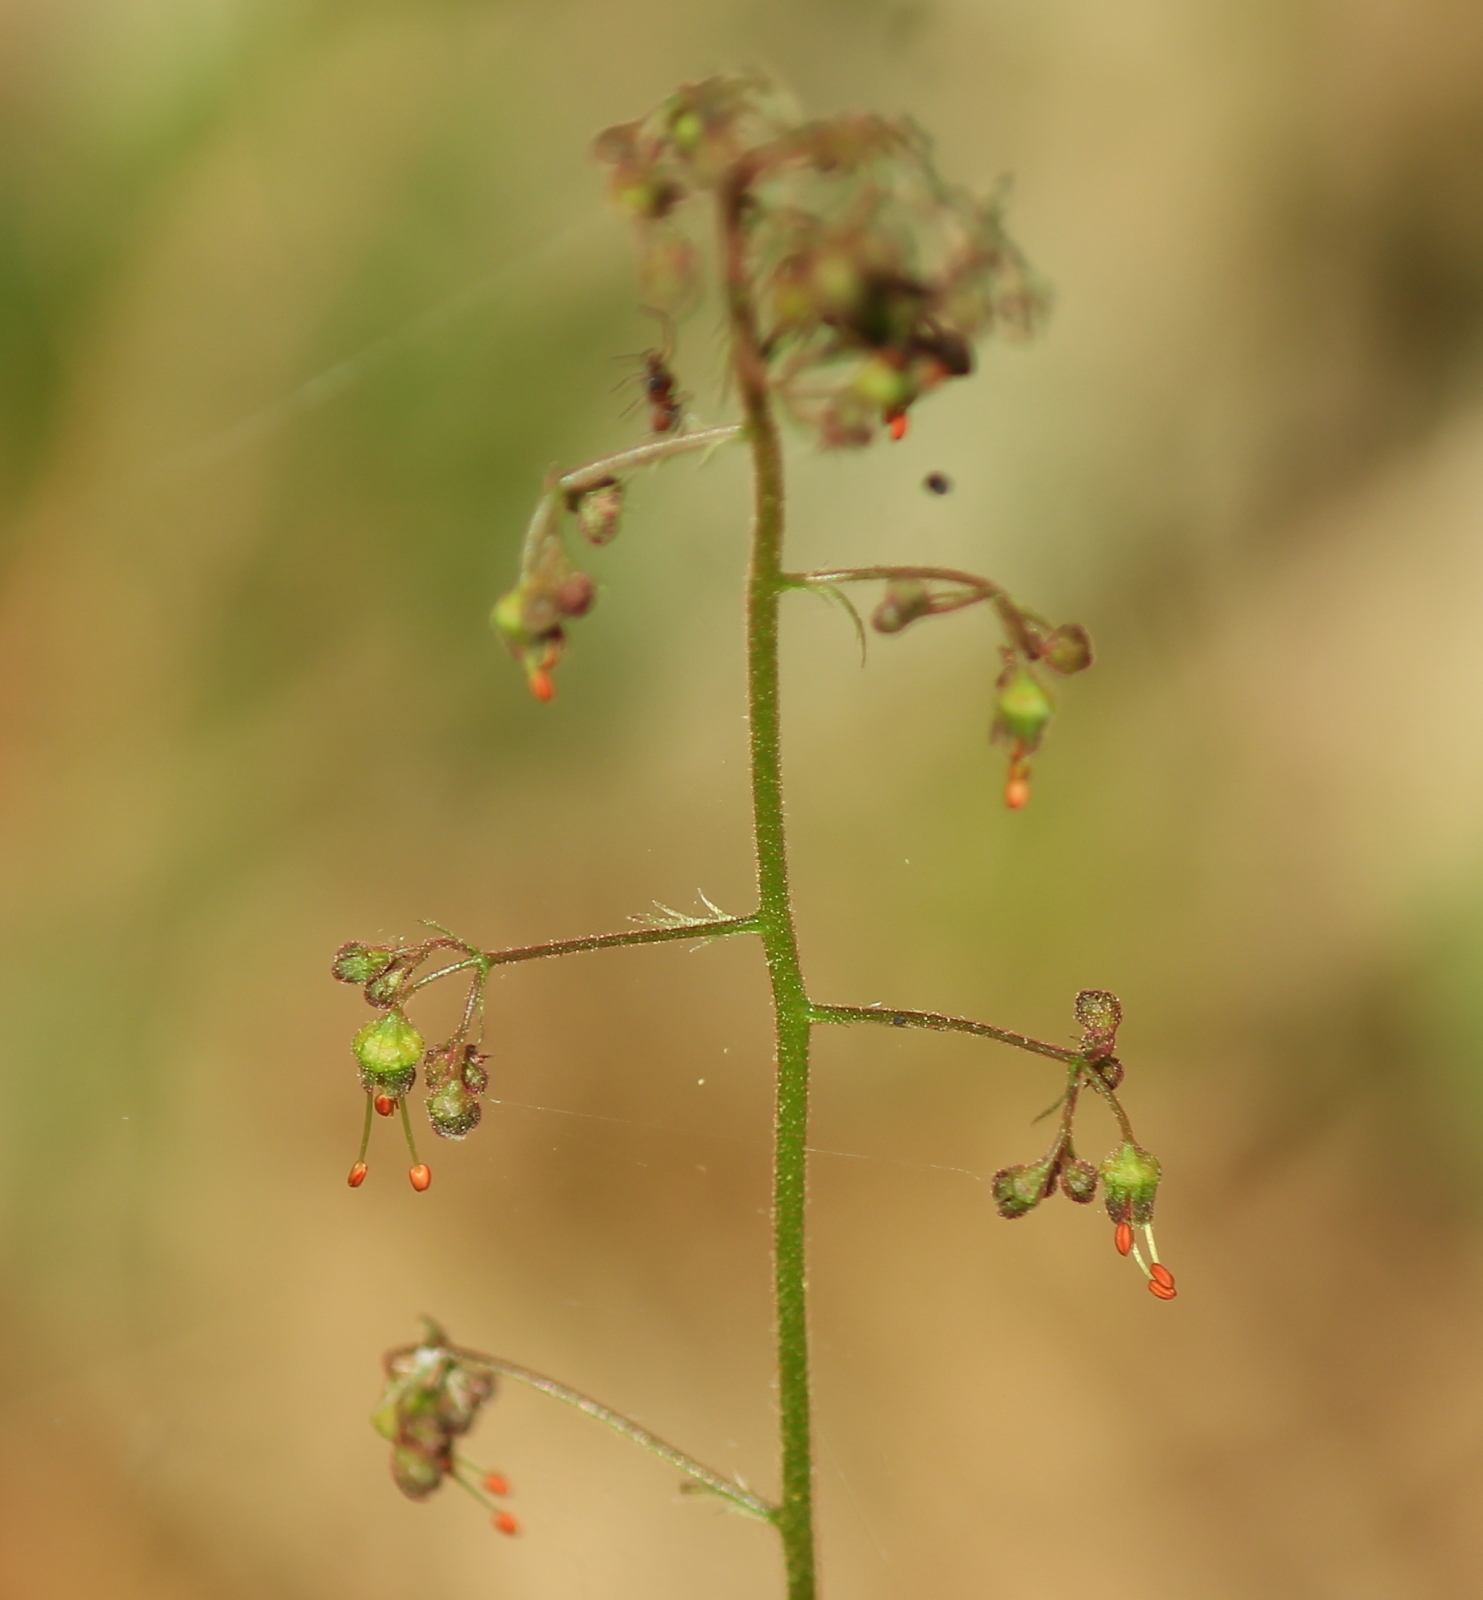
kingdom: Plantae
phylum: Tracheophyta
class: Magnoliopsida
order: Saxifragales
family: Saxifragaceae
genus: Heuchera
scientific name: Heuchera americana
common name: Alumroot
